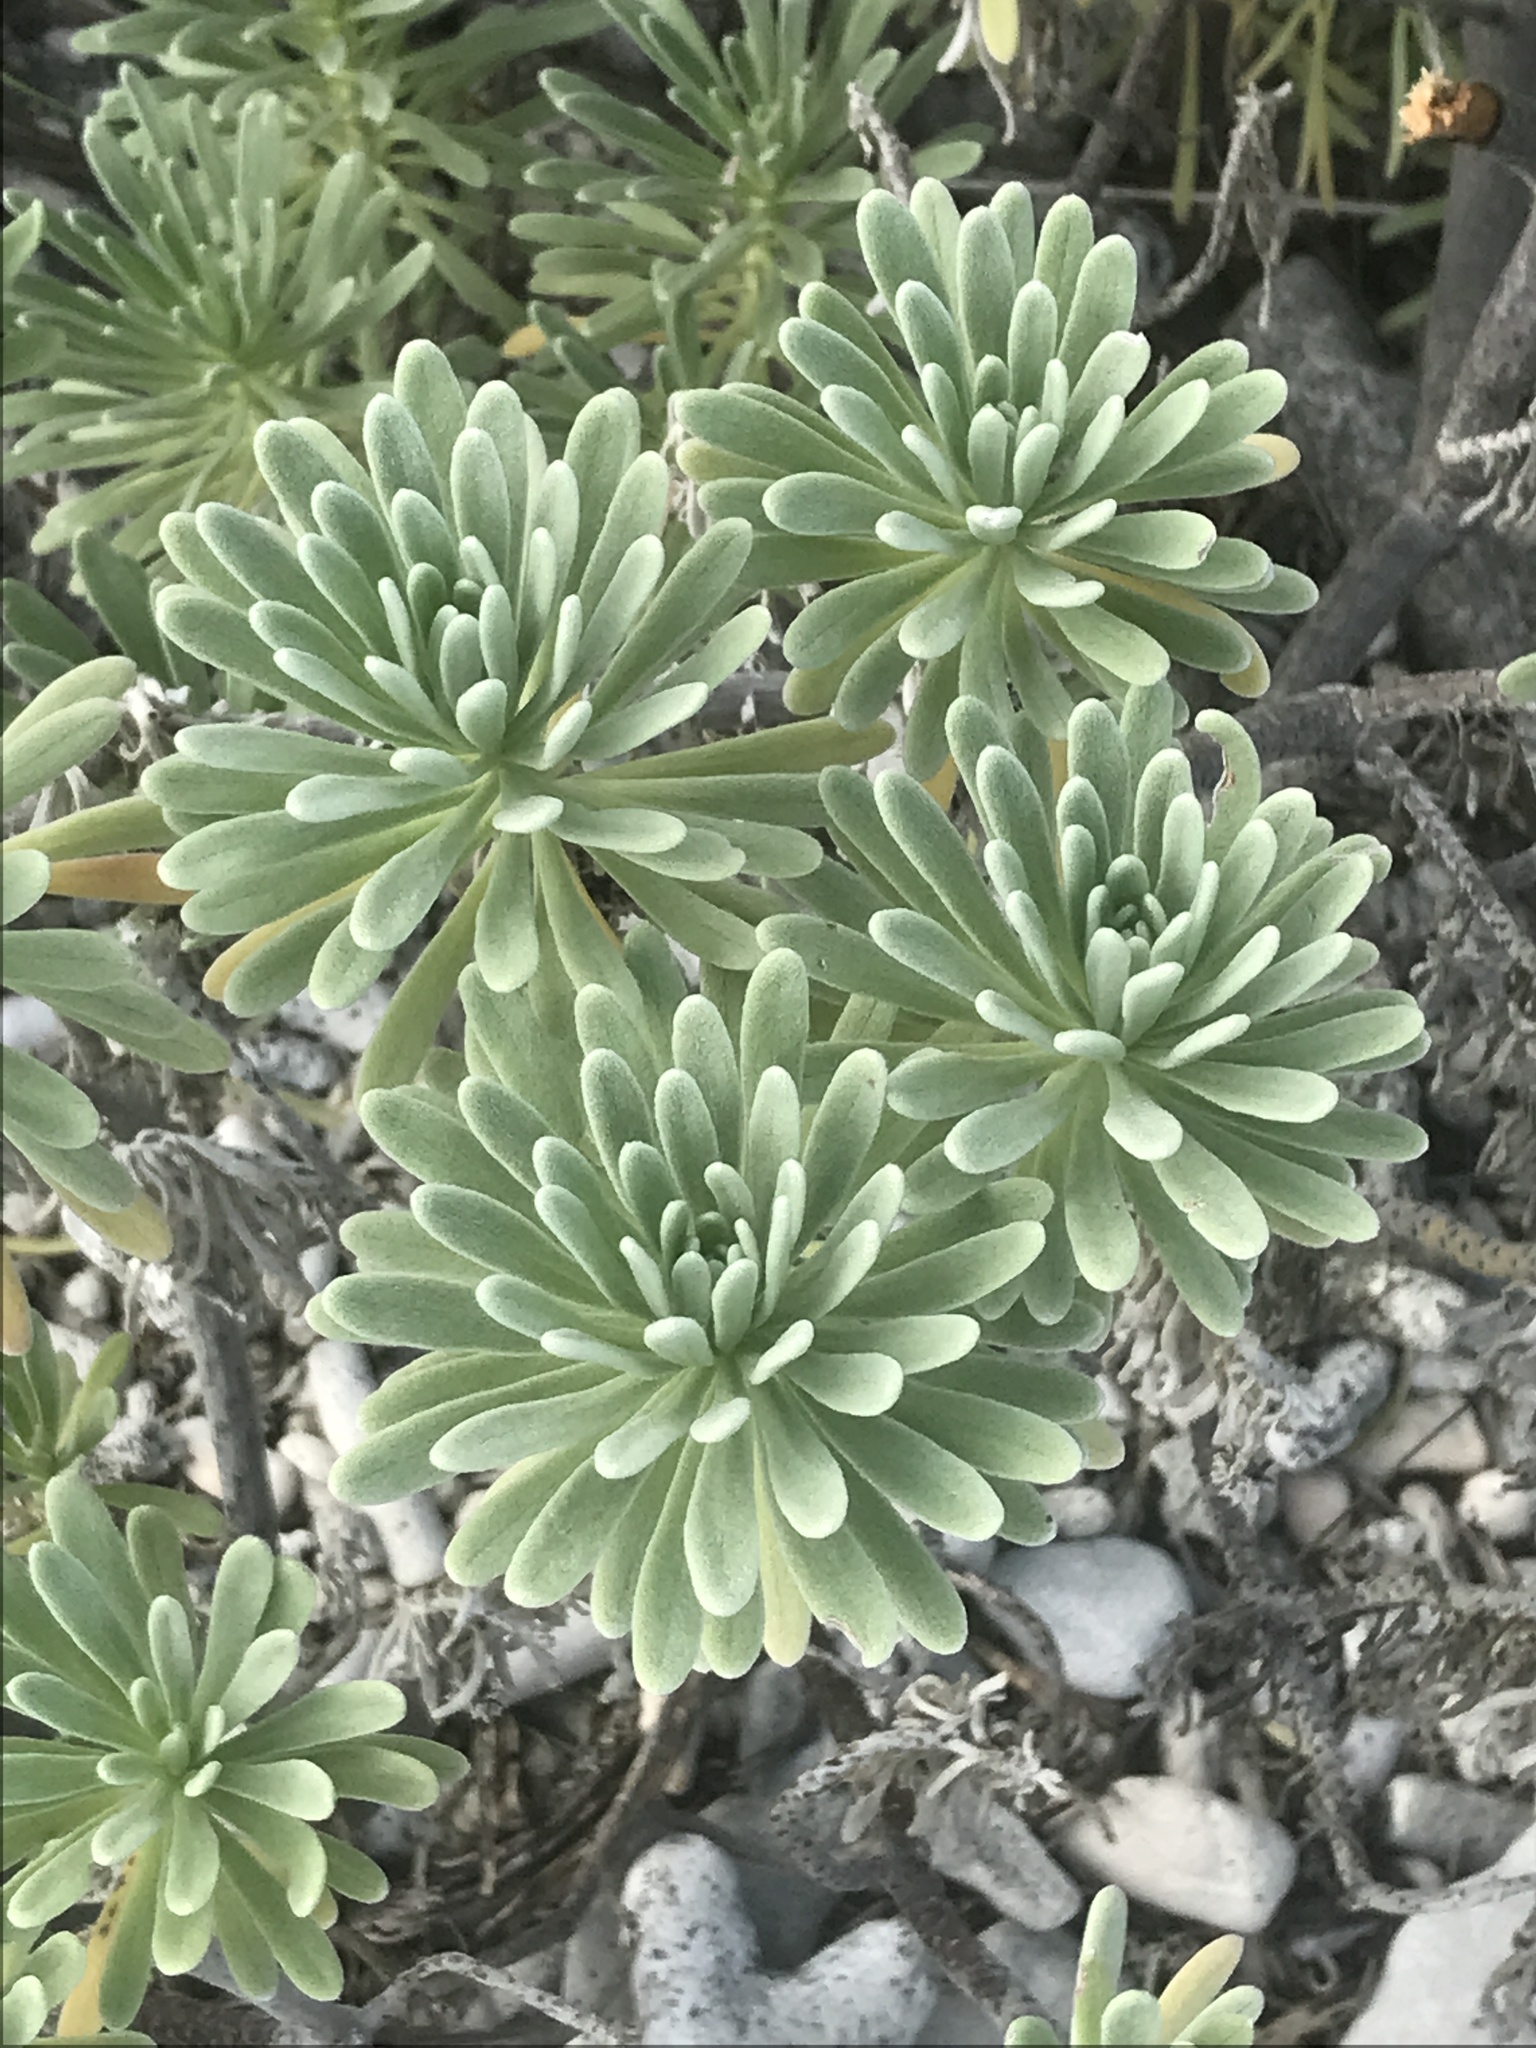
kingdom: Plantae
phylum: Tracheophyta
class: Magnoliopsida
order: Boraginales
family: Heliotropiaceae
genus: Tournefortia
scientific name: Tournefortia gnaphalodes
